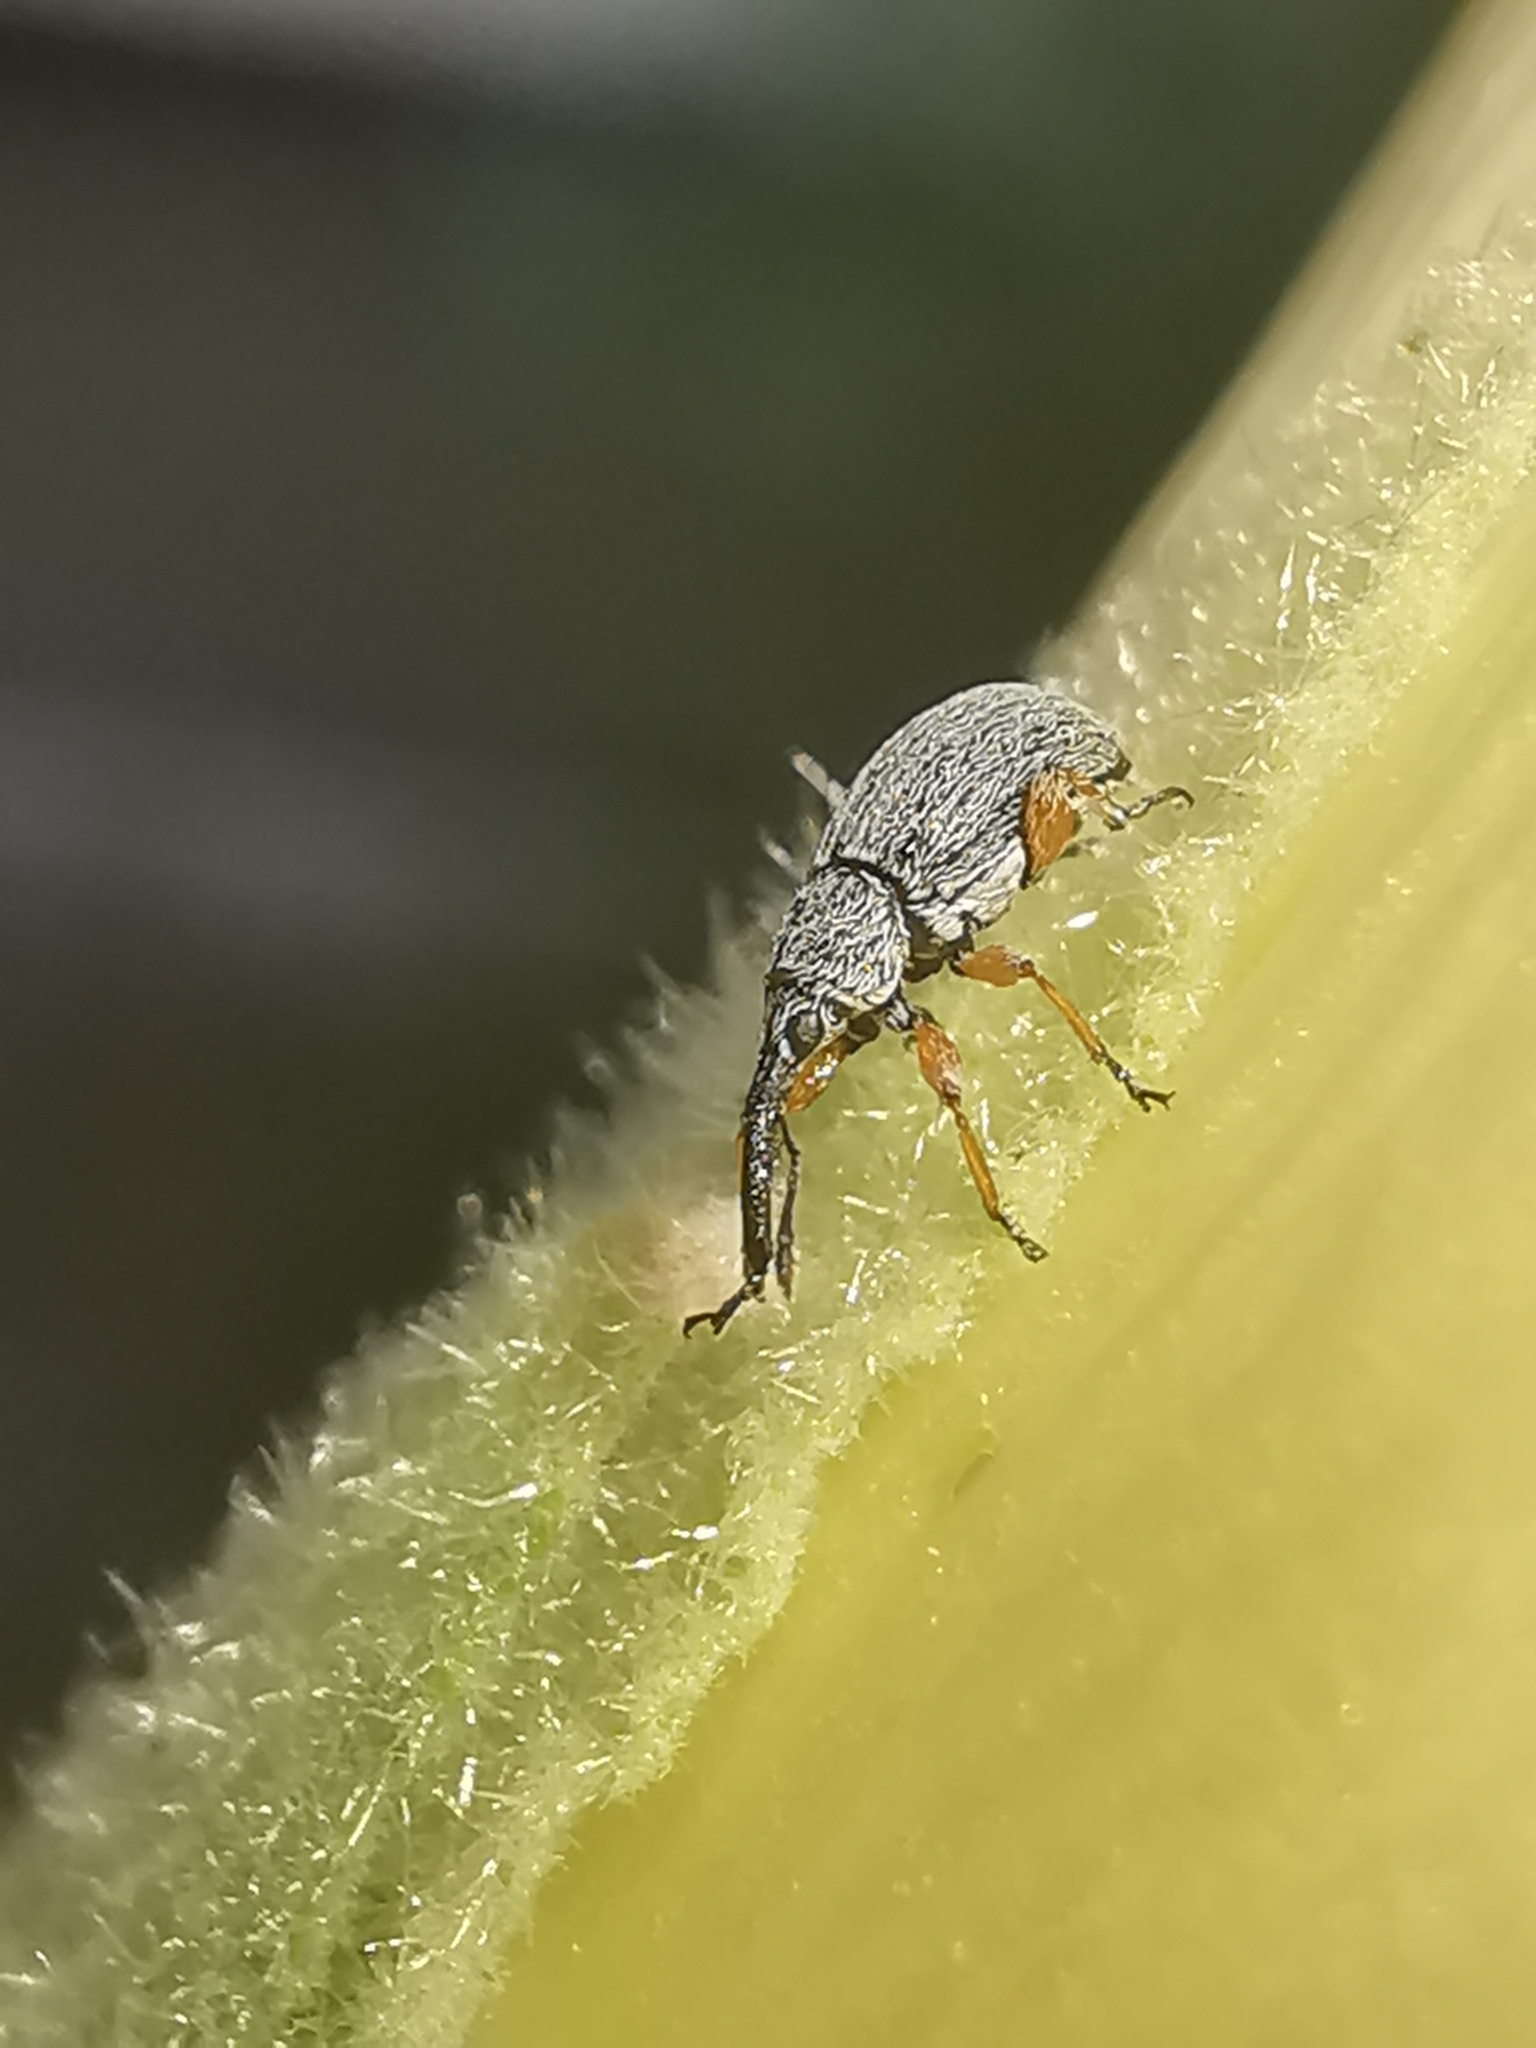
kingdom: Animalia
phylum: Arthropoda
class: Insecta
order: Coleoptera
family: Brentidae
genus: Rhopalapion
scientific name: Rhopalapion longirostre
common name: Hollyhock weevil
